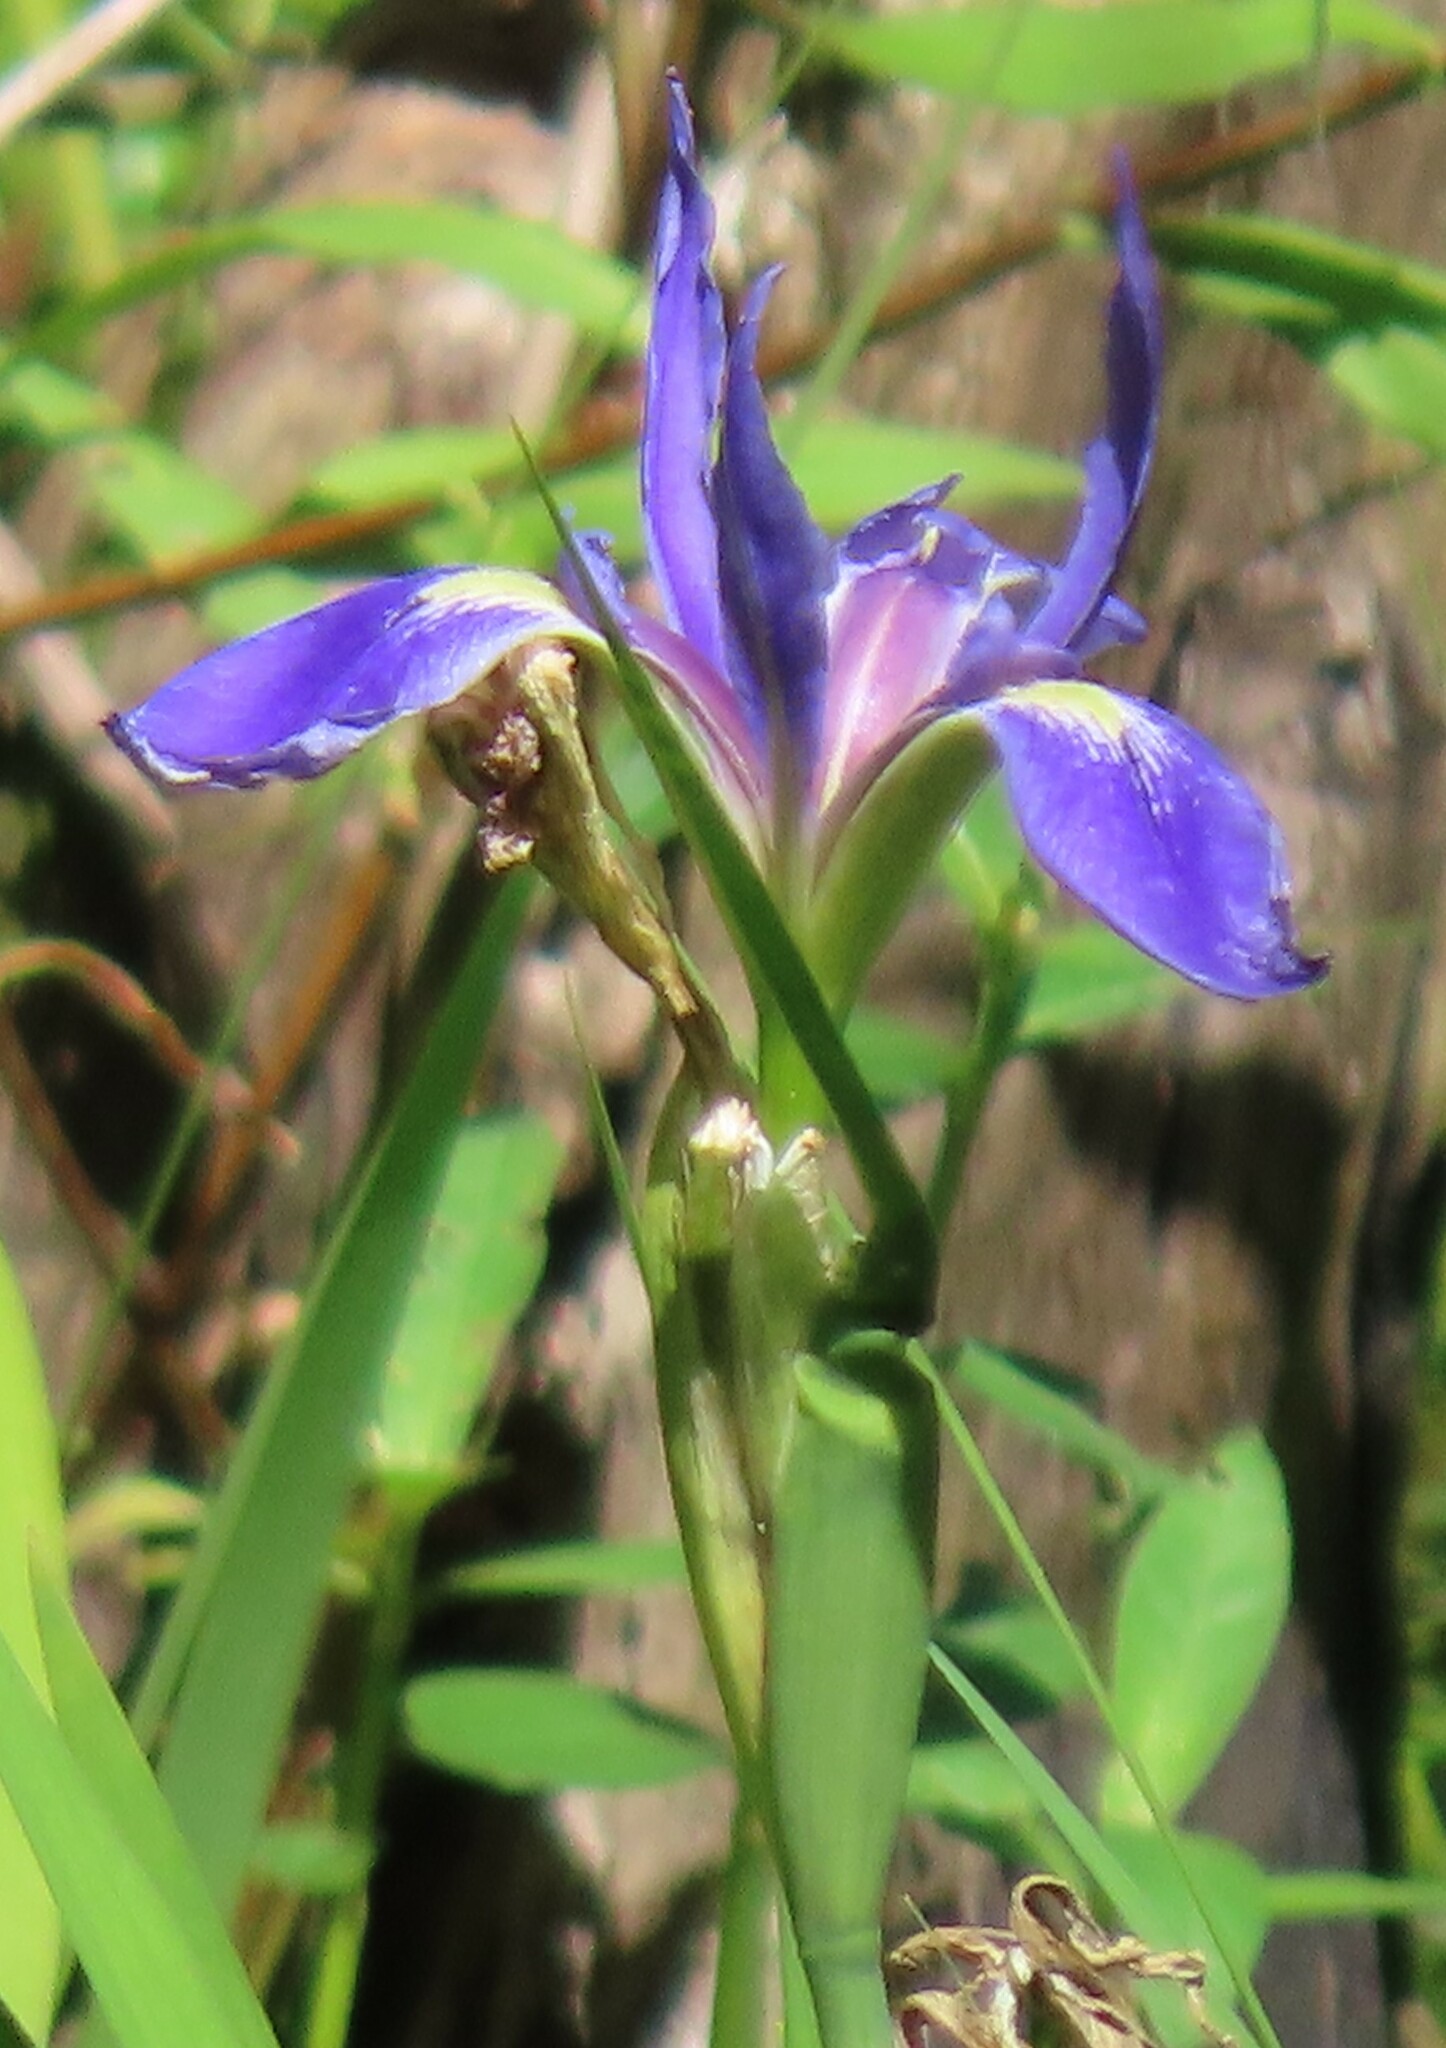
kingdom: Plantae
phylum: Tracheophyta
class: Liliopsida
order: Asparagales
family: Iridaceae
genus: Iris
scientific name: Iris savannarum
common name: Prairie iris
